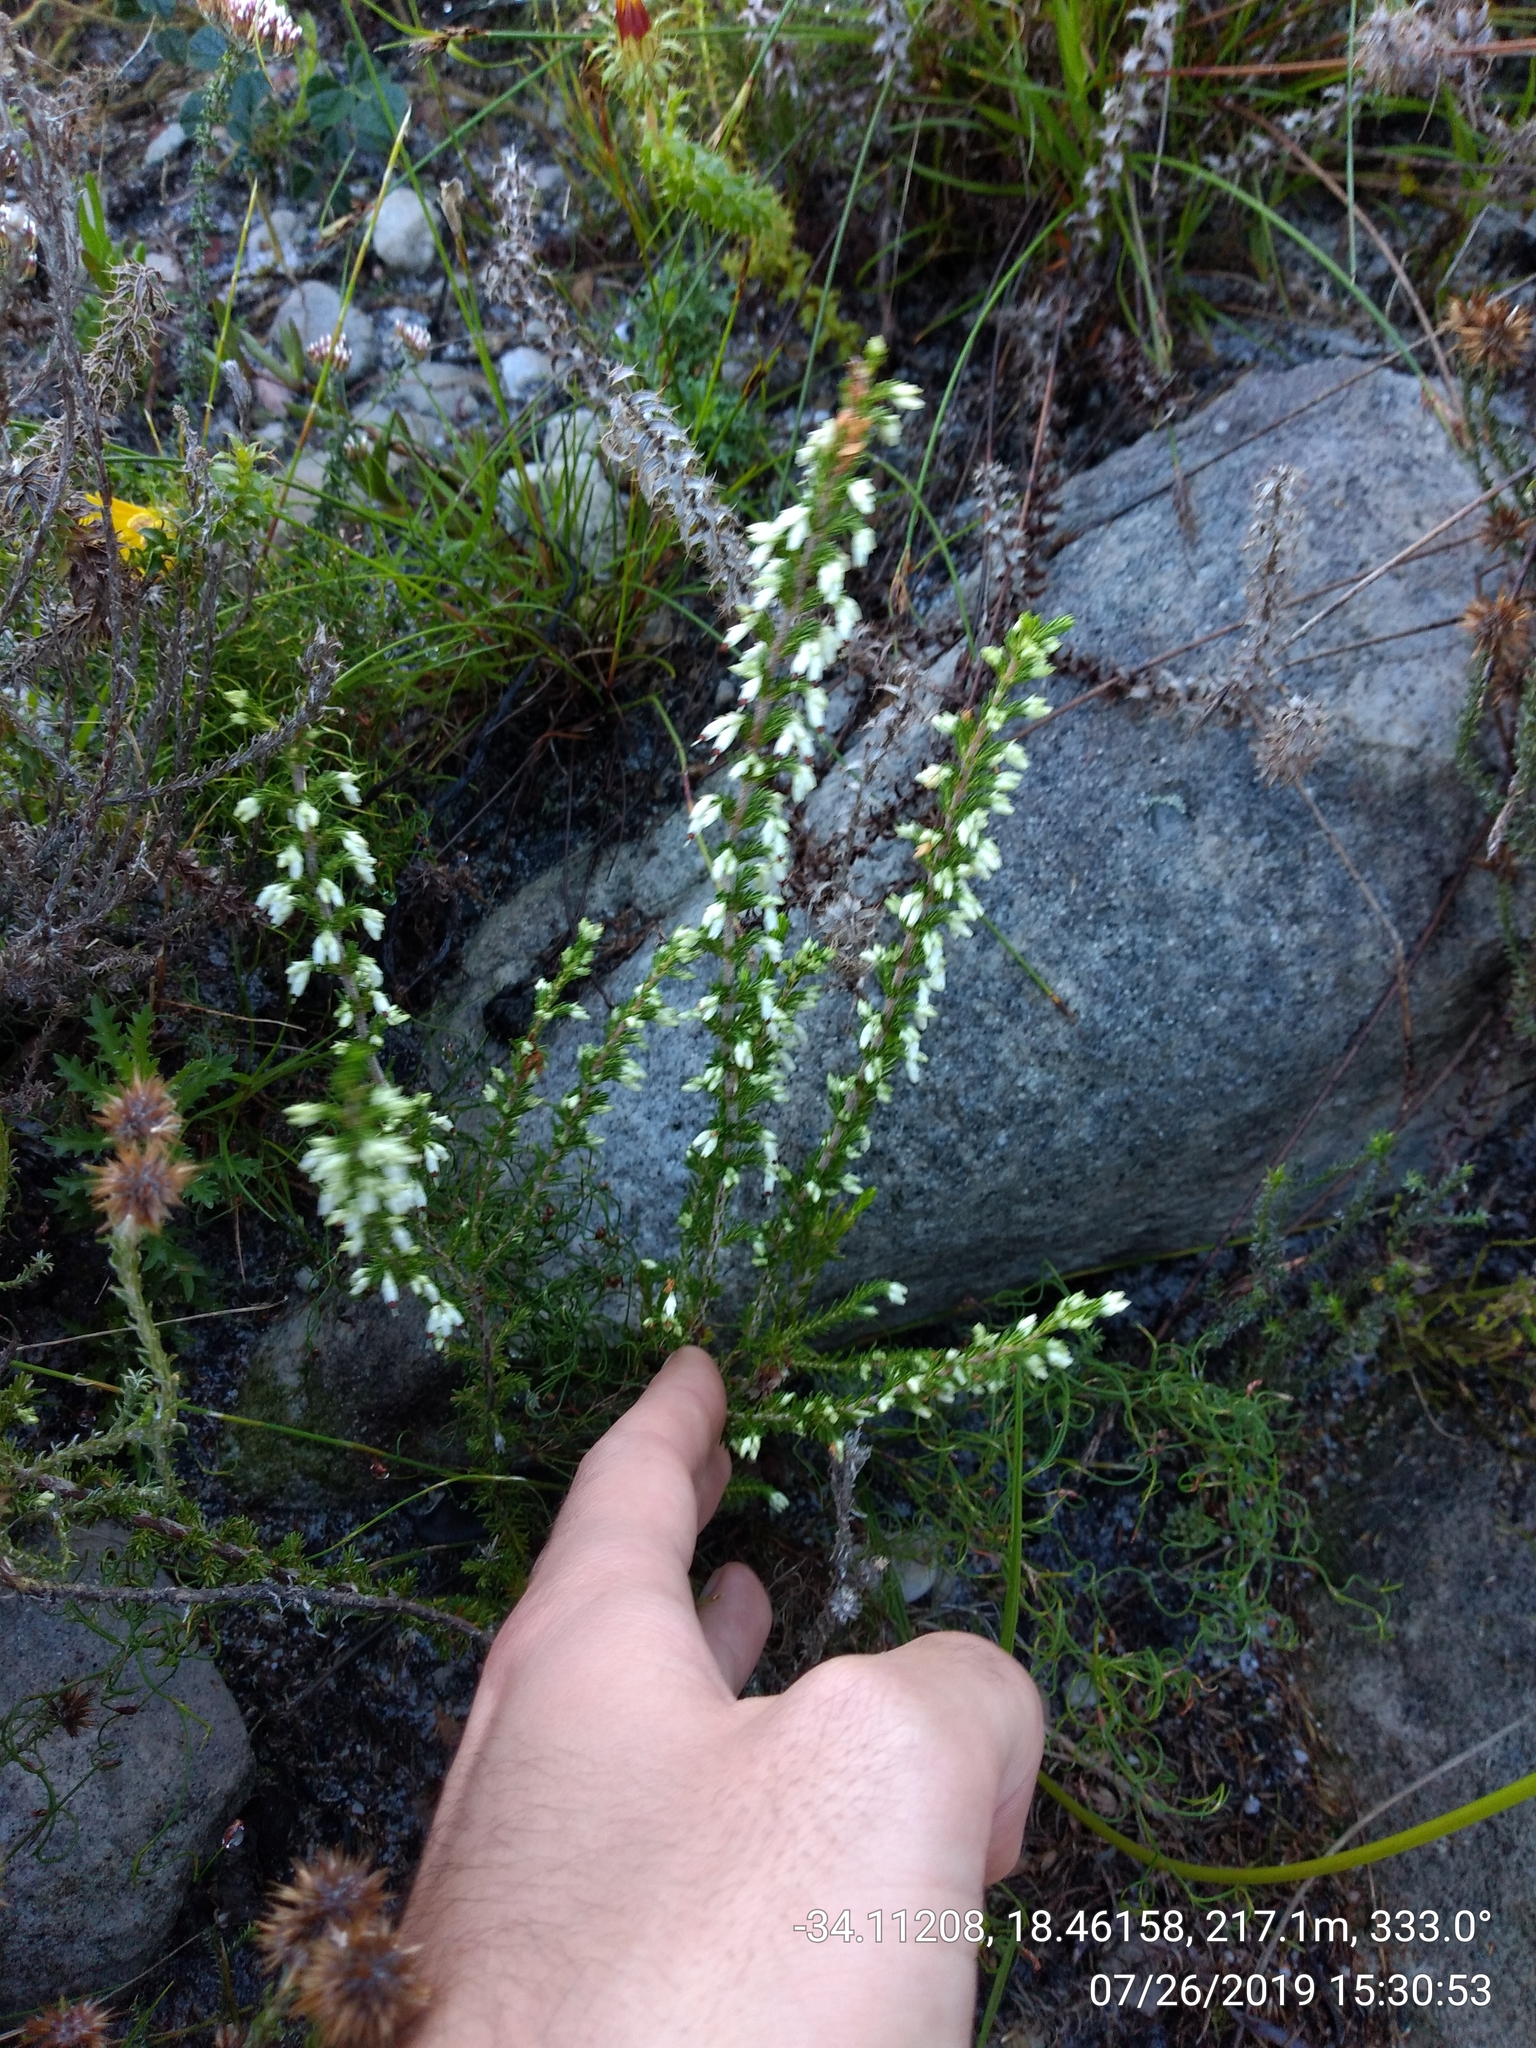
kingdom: Plantae
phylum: Tracheophyta
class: Magnoliopsida
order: Ericales
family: Ericaceae
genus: Erica
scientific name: Erica imbricata
